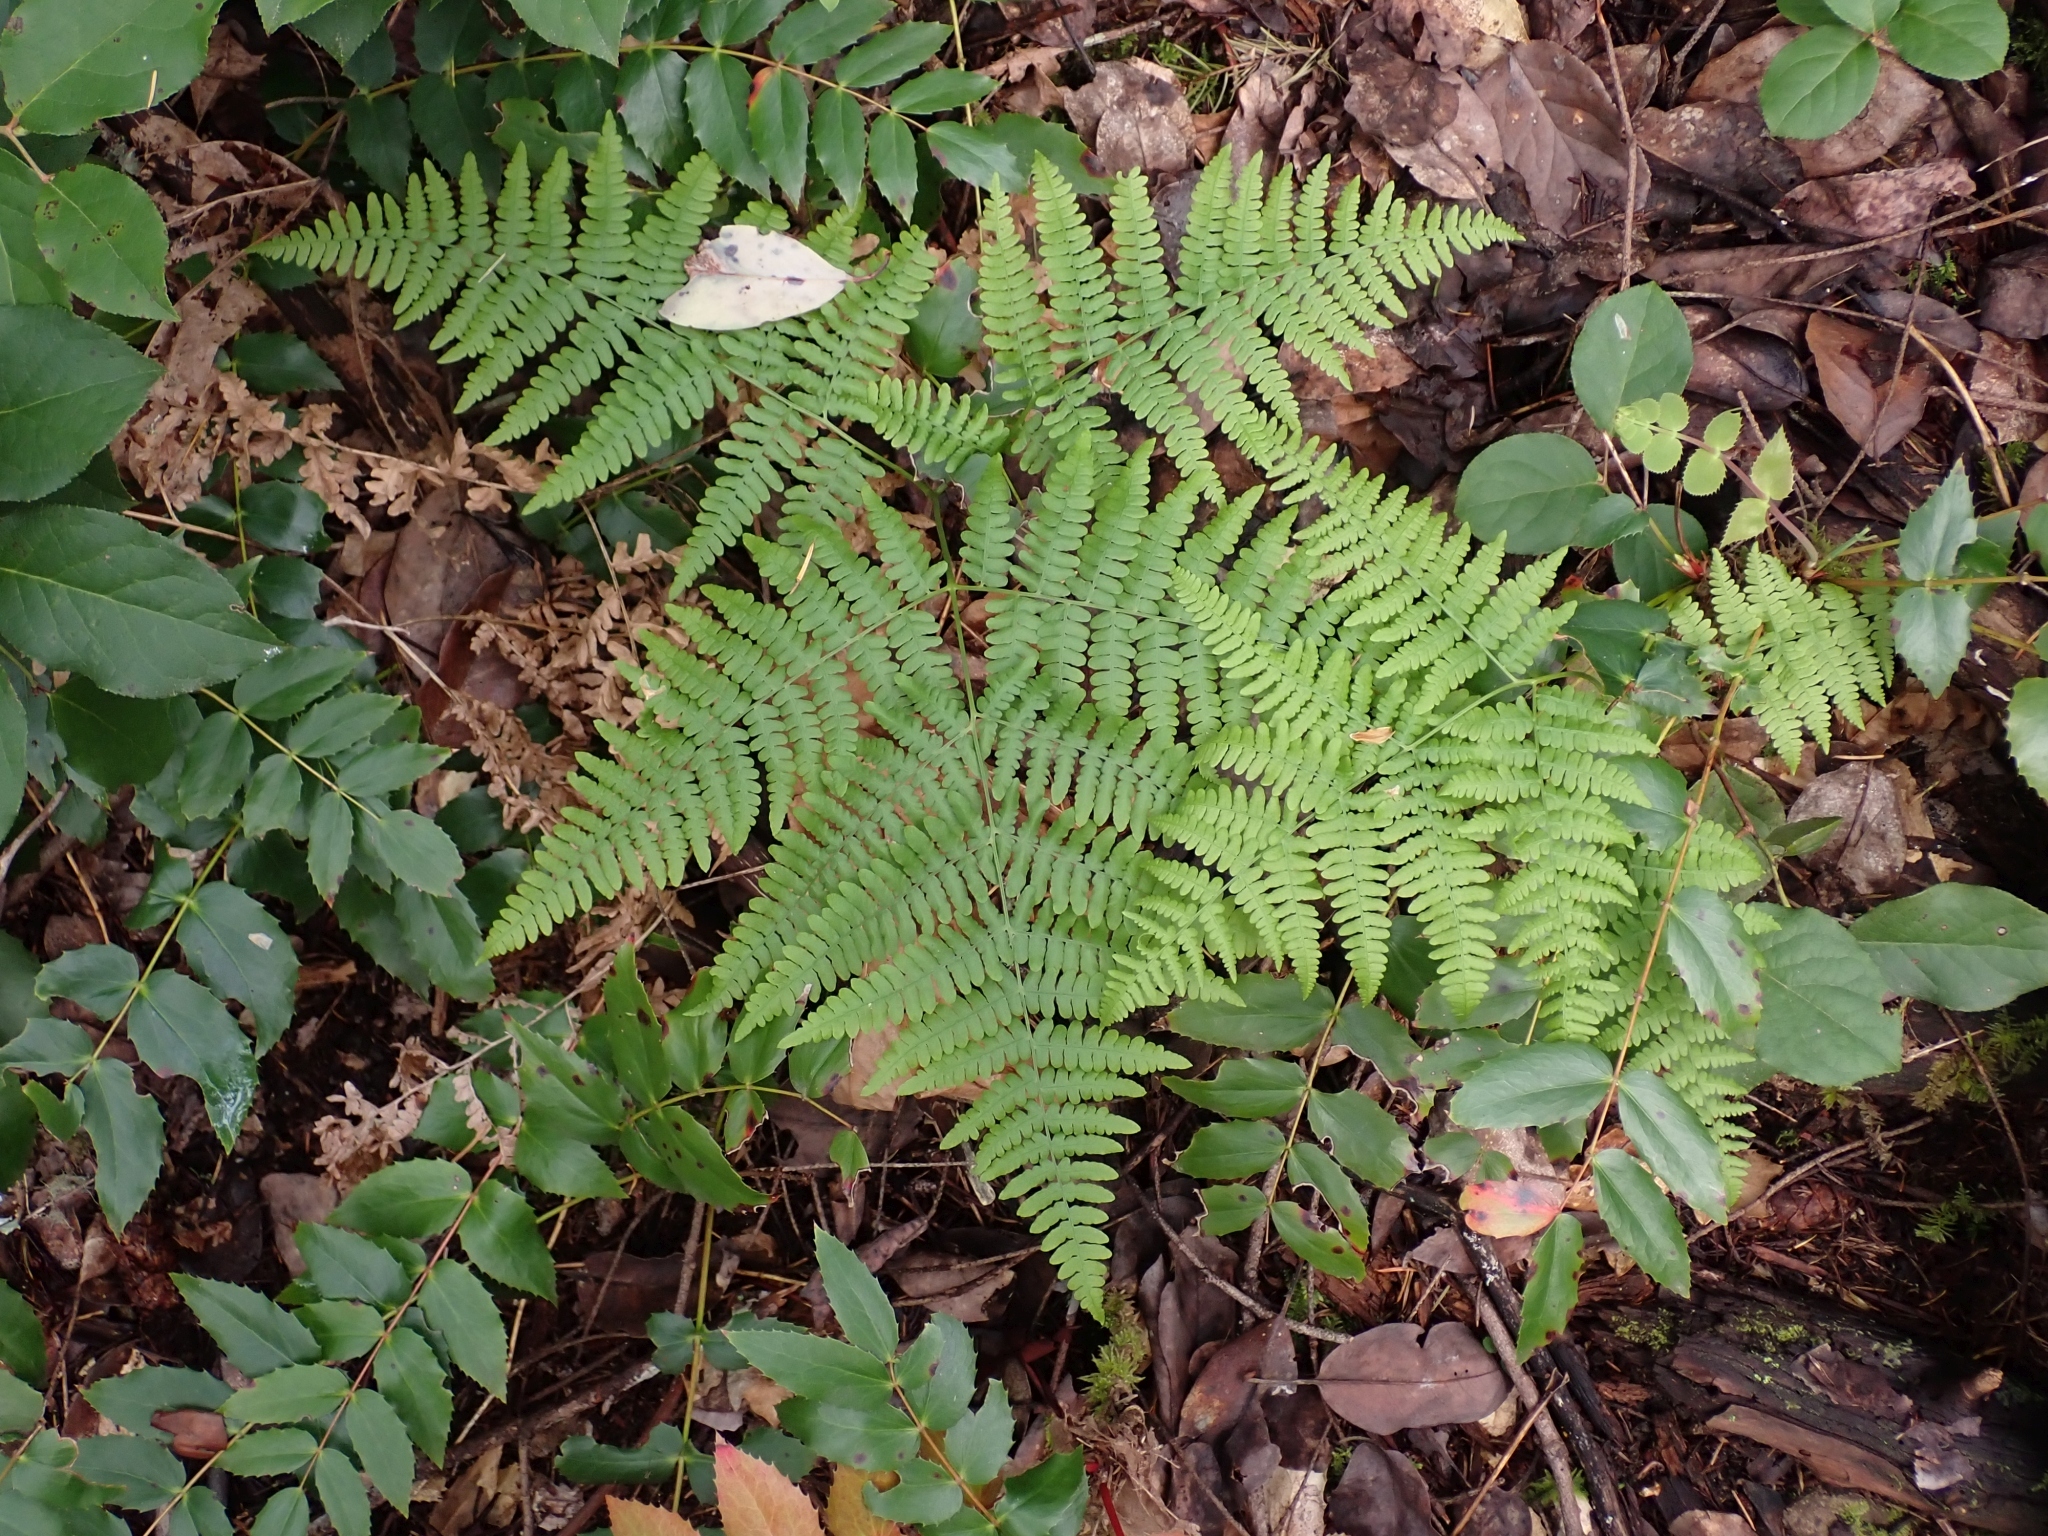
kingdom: Plantae
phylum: Tracheophyta
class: Polypodiopsida
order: Polypodiales
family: Dennstaedtiaceae
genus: Pteridium
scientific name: Pteridium aquilinum
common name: Bracken
